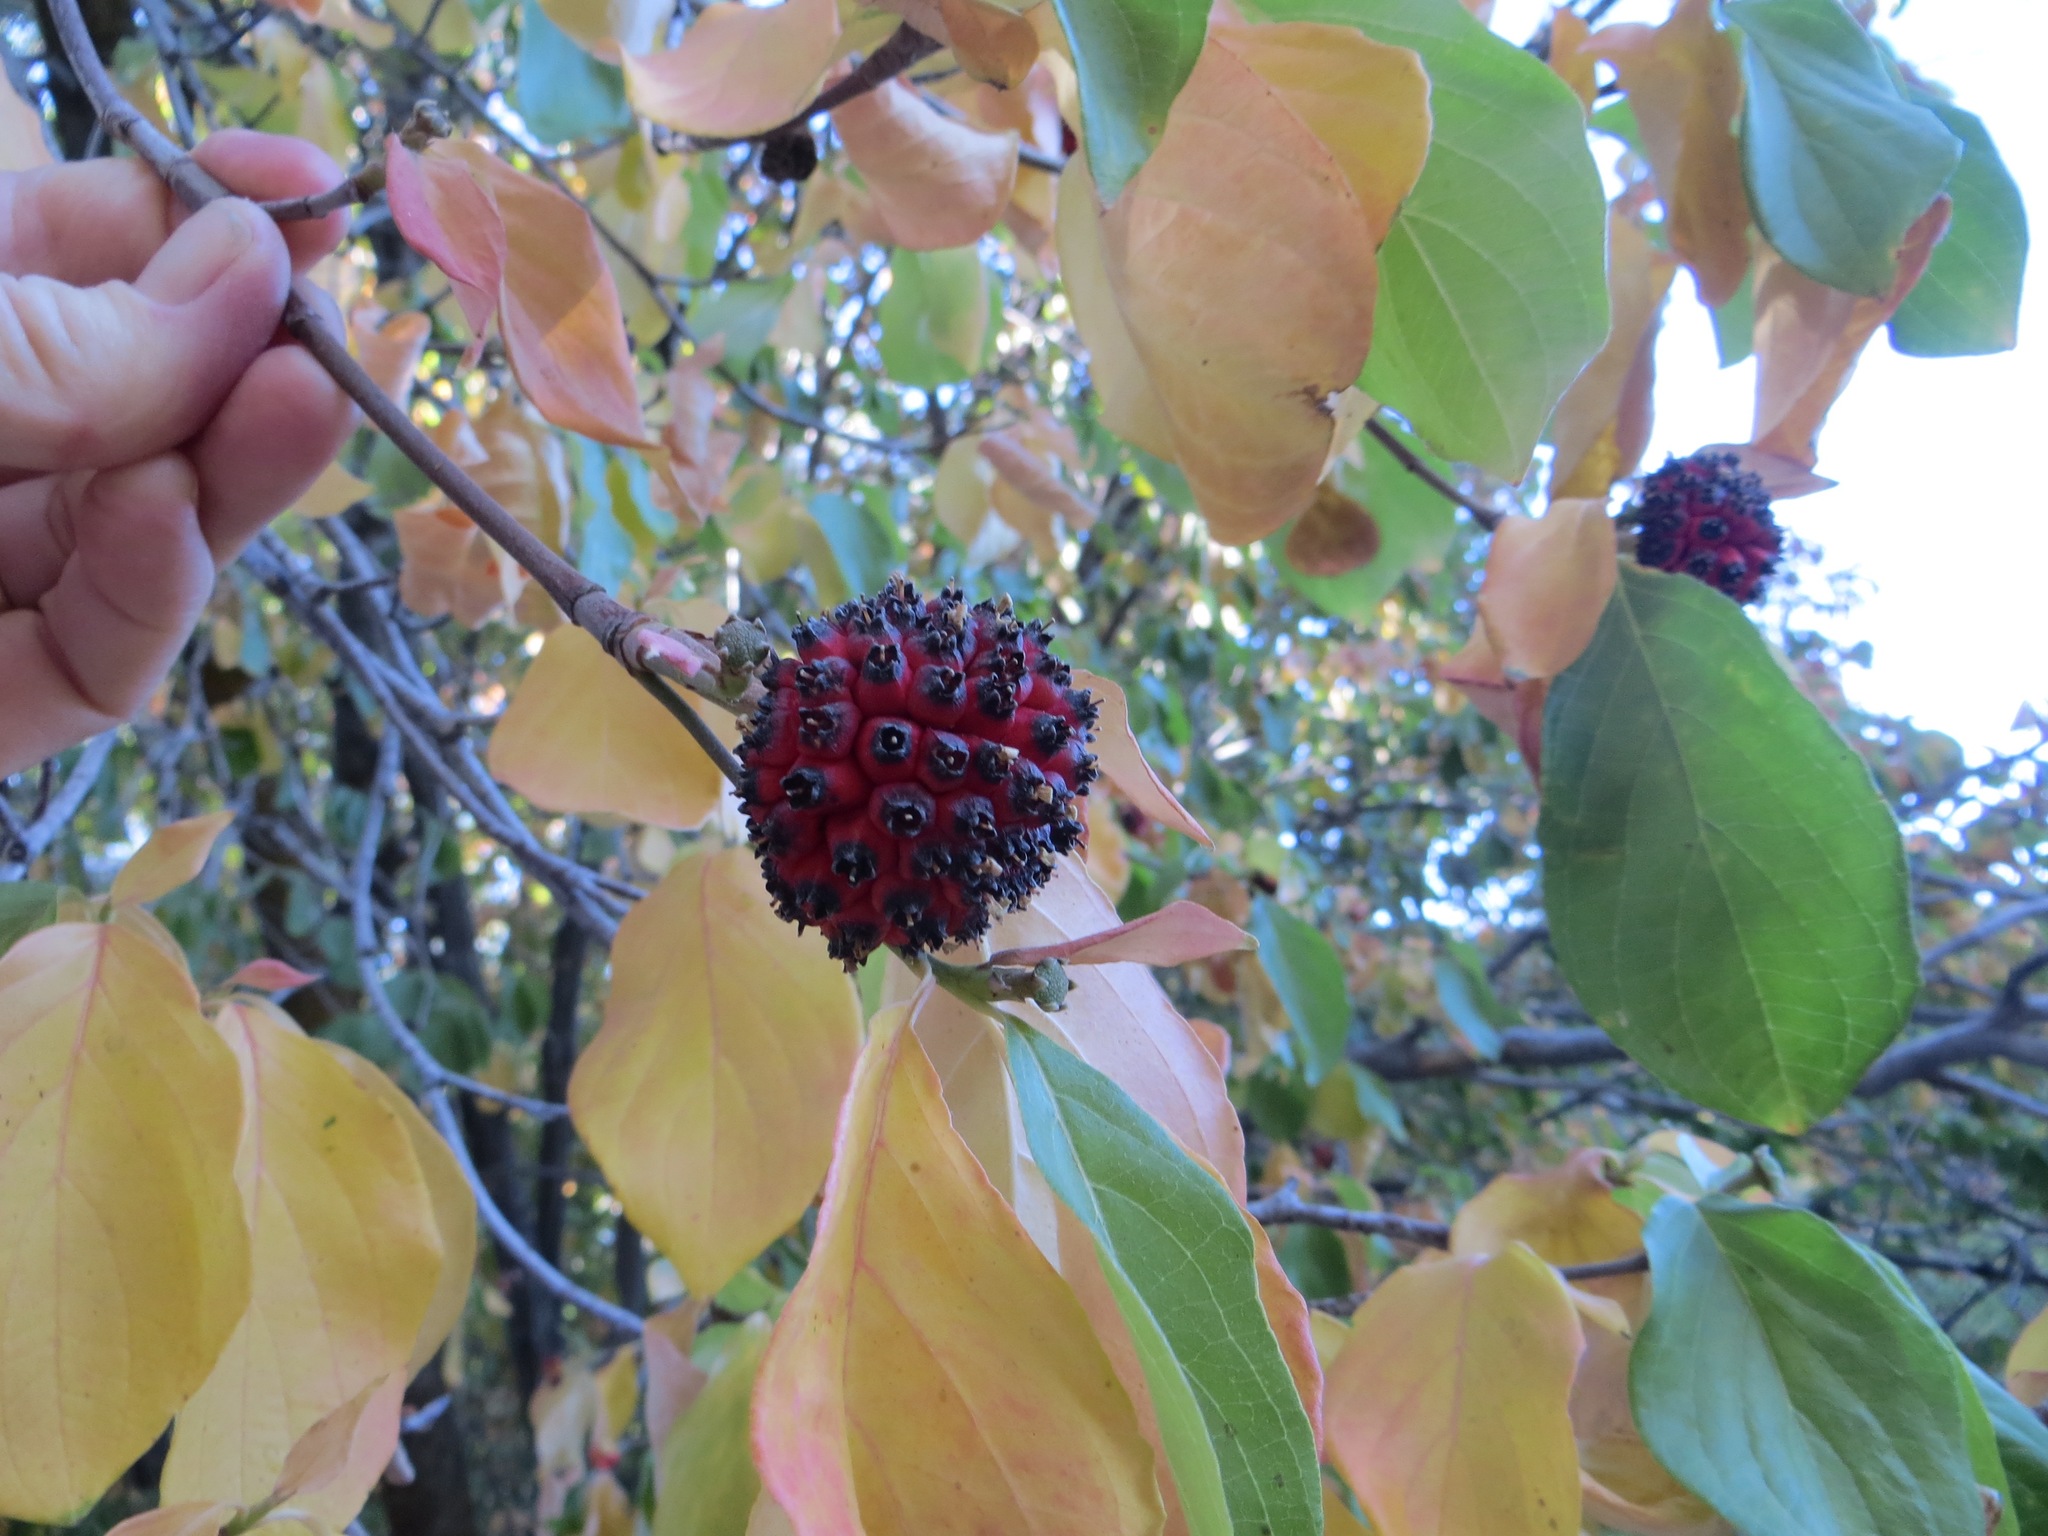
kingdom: Plantae
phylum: Tracheophyta
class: Magnoliopsida
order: Cornales
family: Cornaceae
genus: Cornus
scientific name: Cornus nuttallii
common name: Pacific dogwood
